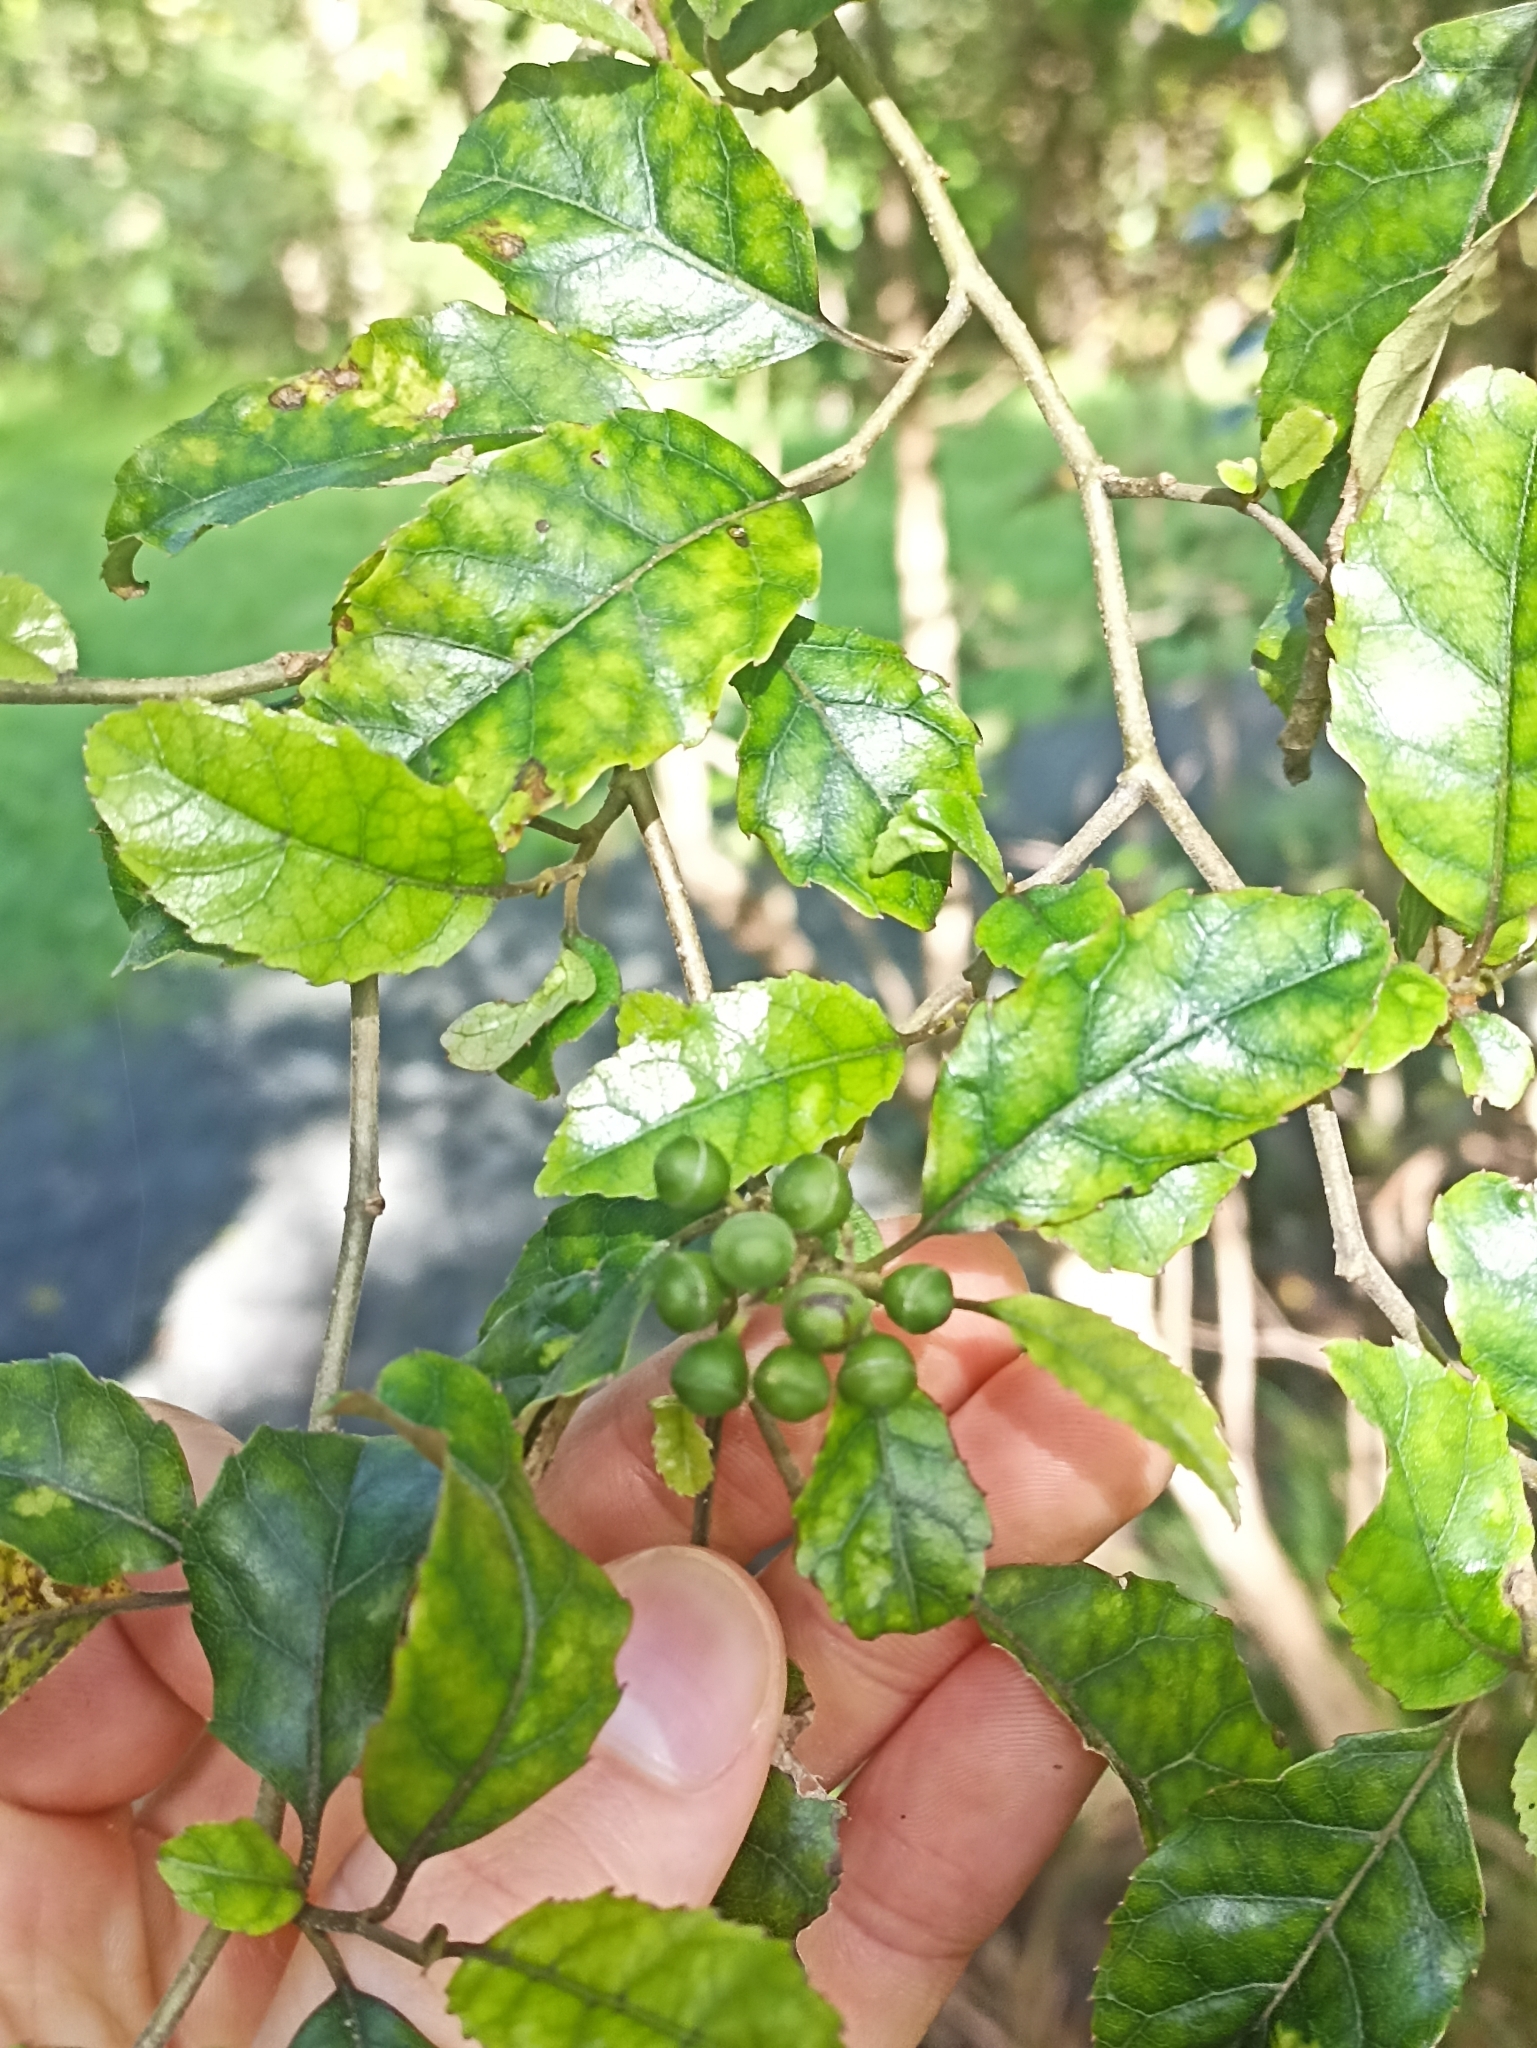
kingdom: Plantae
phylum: Tracheophyta
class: Magnoliopsida
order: Asterales
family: Rousseaceae
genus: Carpodetus
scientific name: Carpodetus serratus
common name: White mapau
